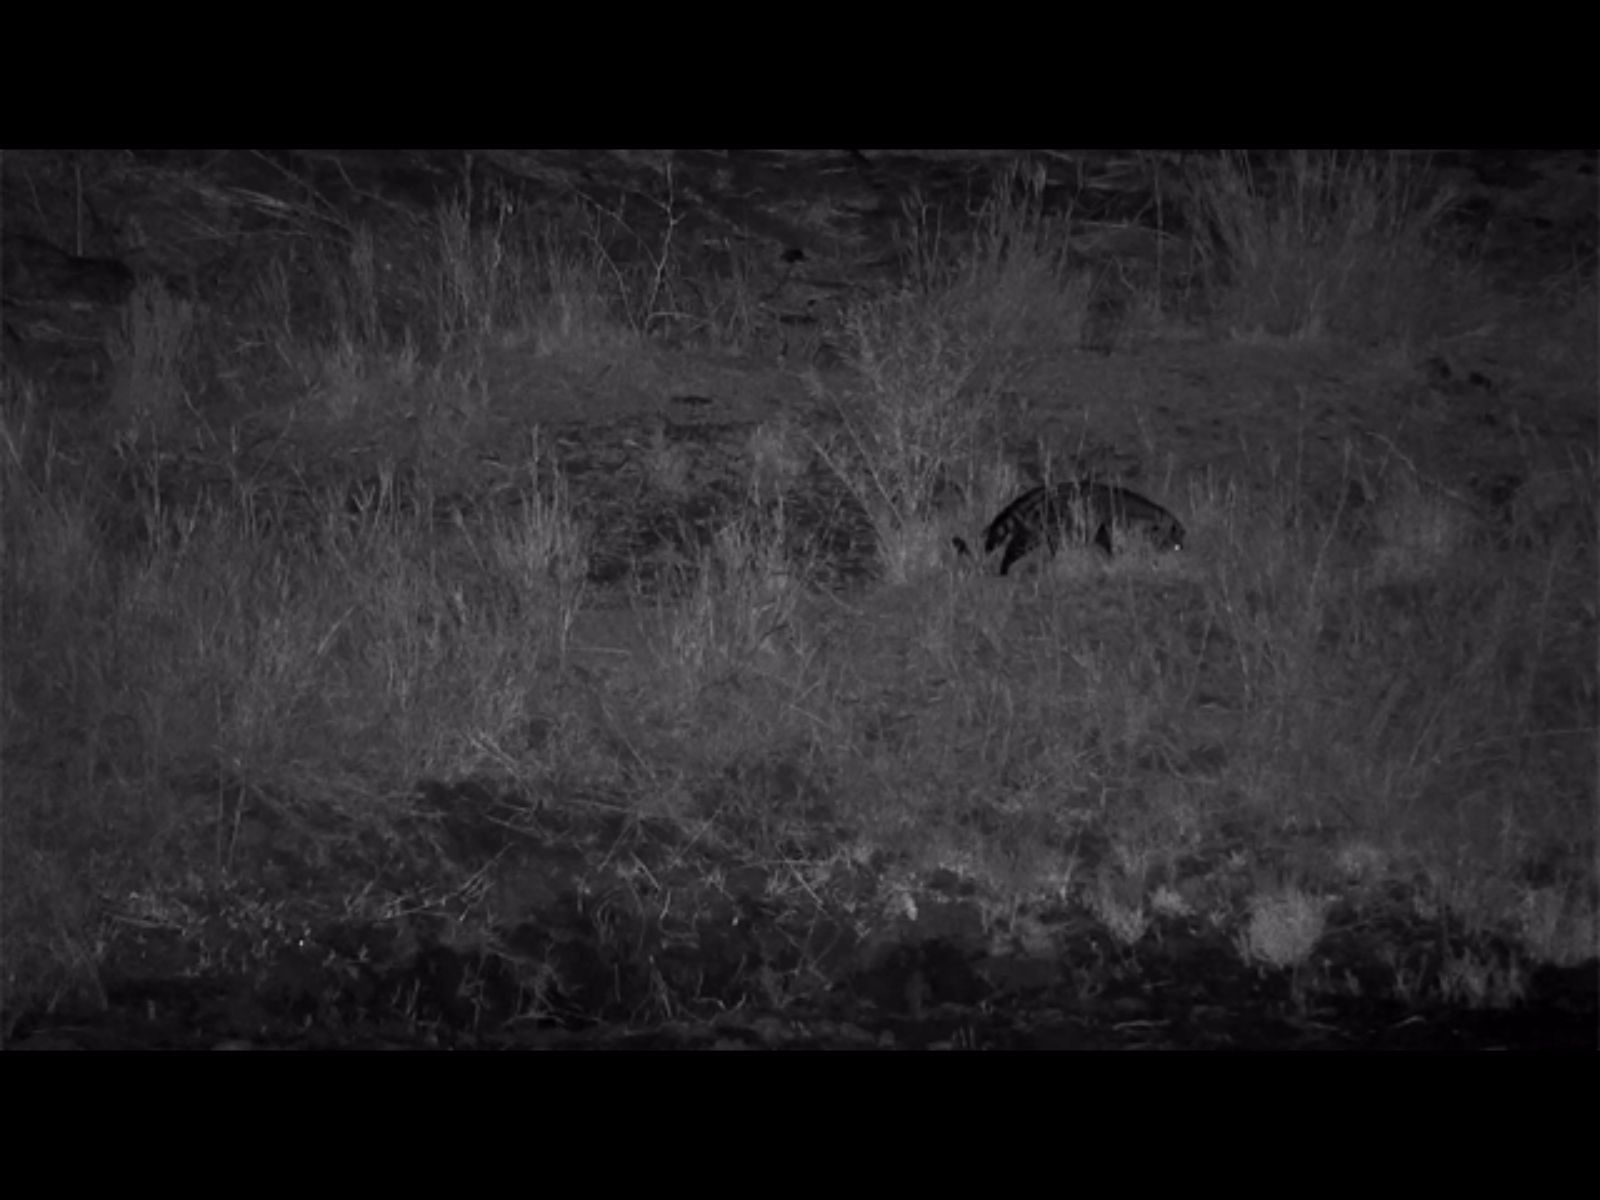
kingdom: Animalia
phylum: Chordata
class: Mammalia
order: Carnivora
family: Viverridae
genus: Civettictis
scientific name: Civettictis civetta
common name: African civet
